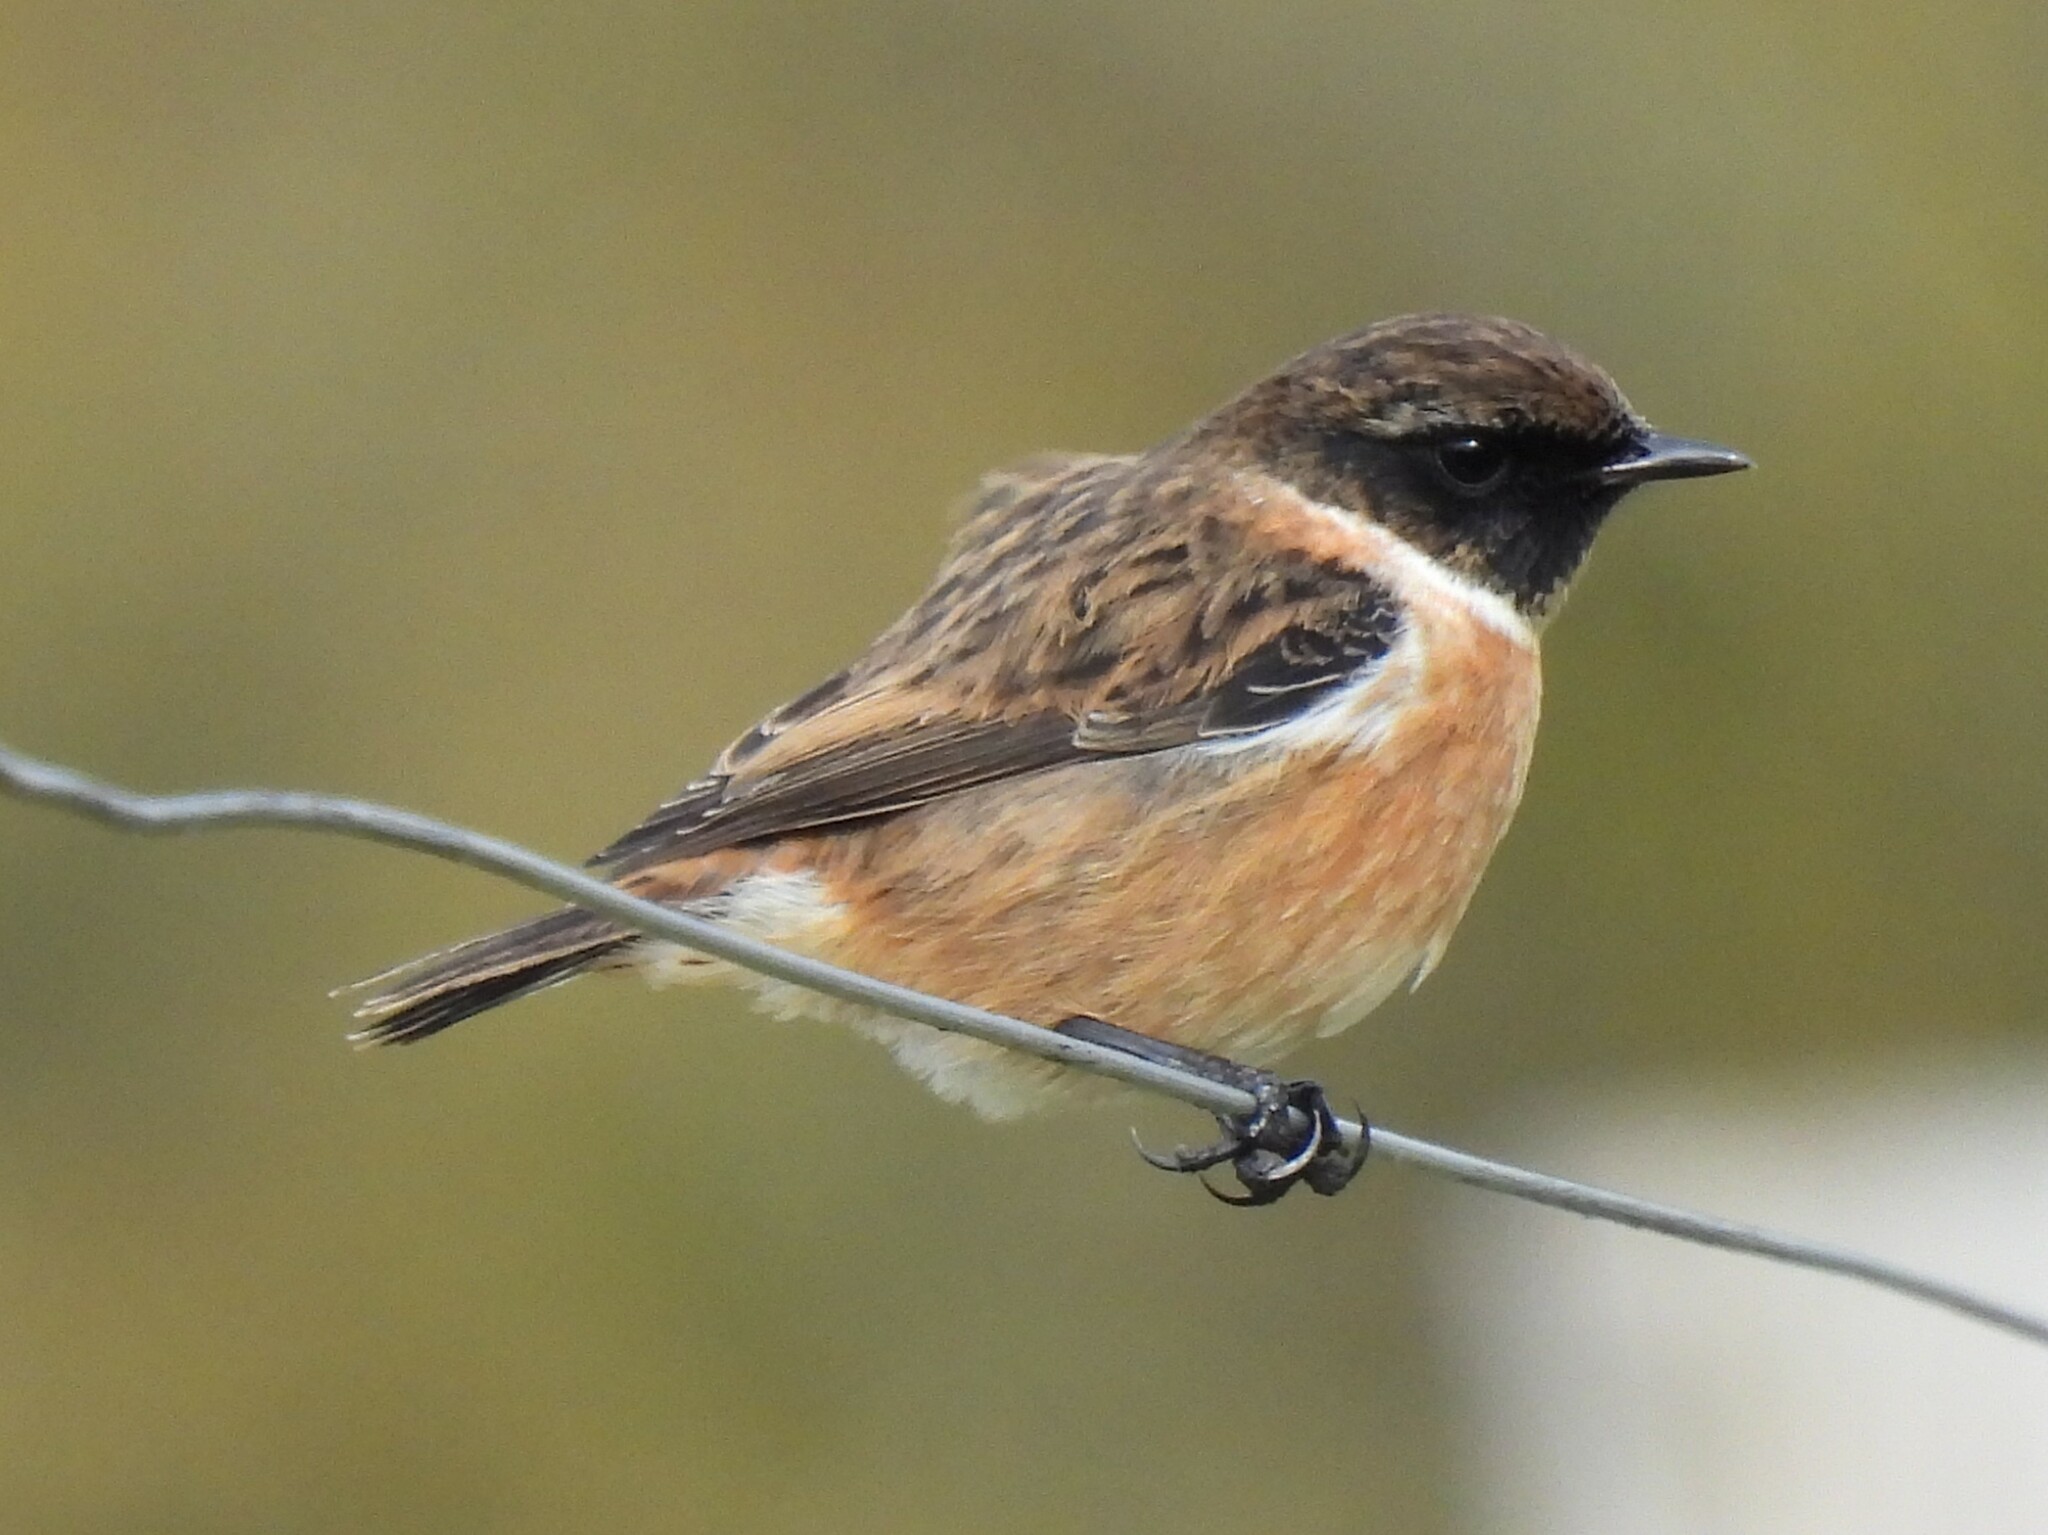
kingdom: Animalia
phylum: Chordata
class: Aves
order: Passeriformes
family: Muscicapidae
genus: Saxicola
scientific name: Saxicola rubicola
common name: European stonechat
